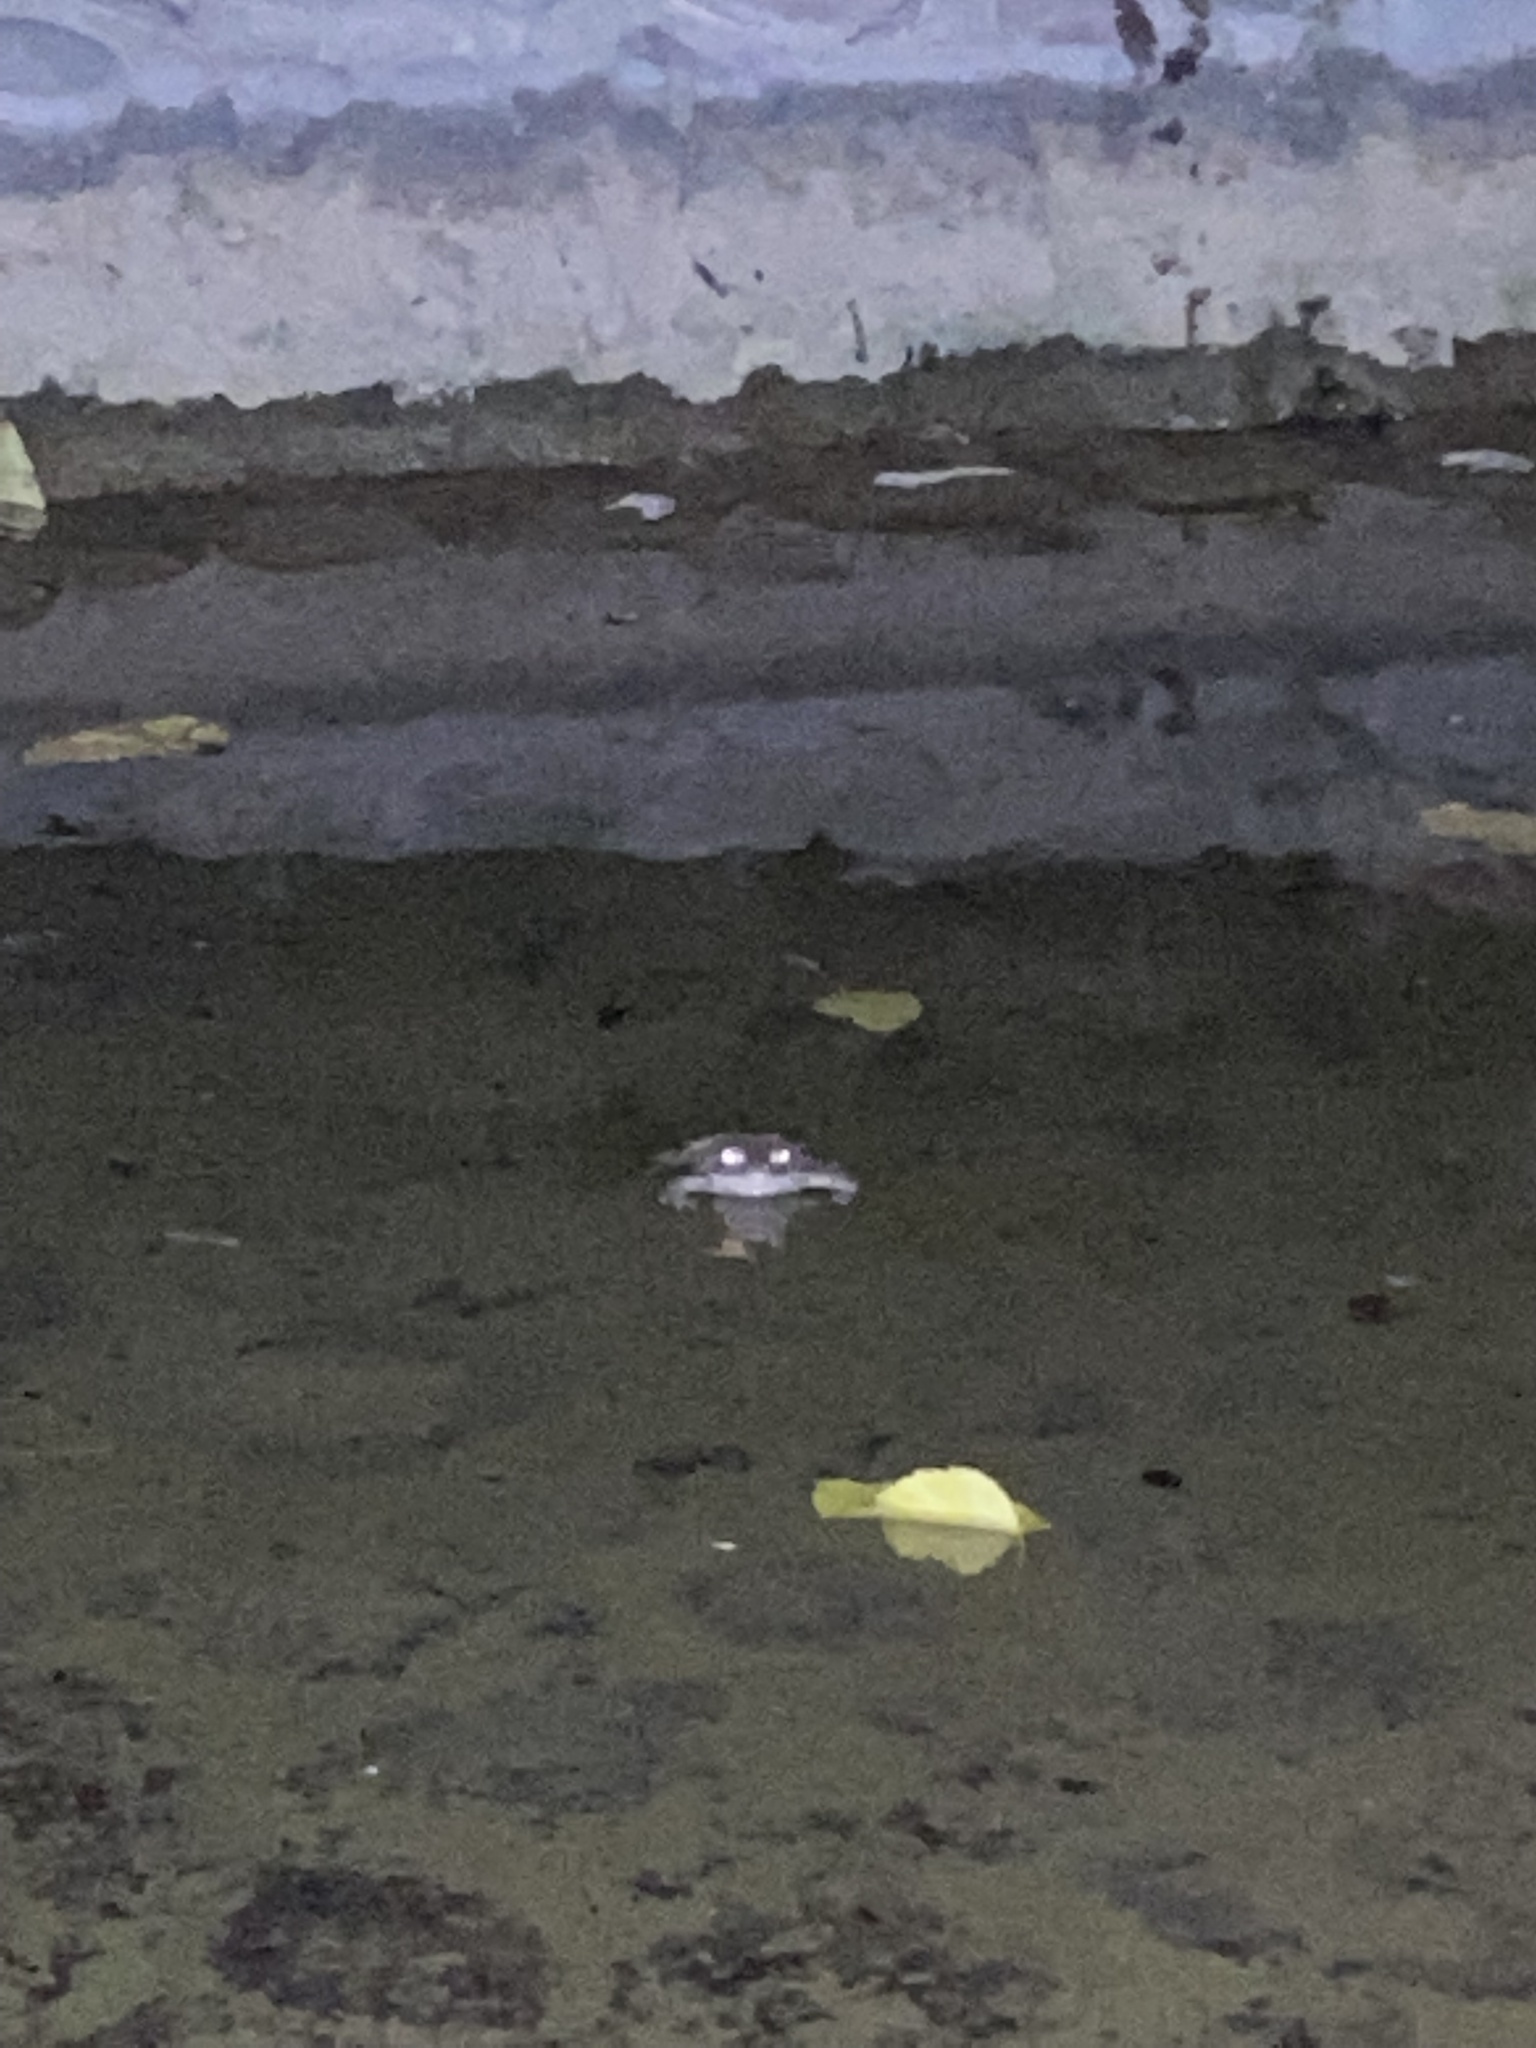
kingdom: Animalia
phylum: Chordata
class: Amphibia
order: Anura
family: Bufonidae
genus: Bufotes
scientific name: Bufotes viridis
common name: European green toad
